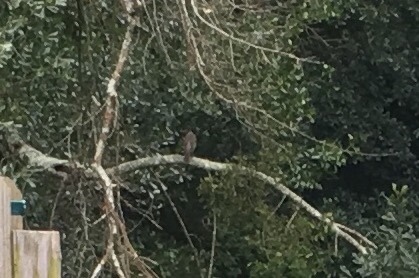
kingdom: Animalia
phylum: Chordata
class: Aves
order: Accipitriformes
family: Accipitridae
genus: Accipiter
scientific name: Accipiter
